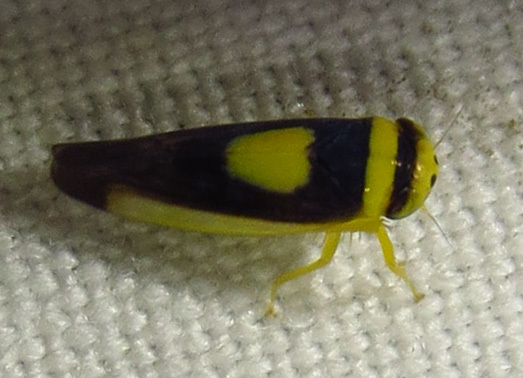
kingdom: Animalia
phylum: Arthropoda
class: Insecta
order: Hemiptera
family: Cicadellidae
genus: Colladonus
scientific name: Colladonus clitellarius
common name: The saddleback leafhopper
